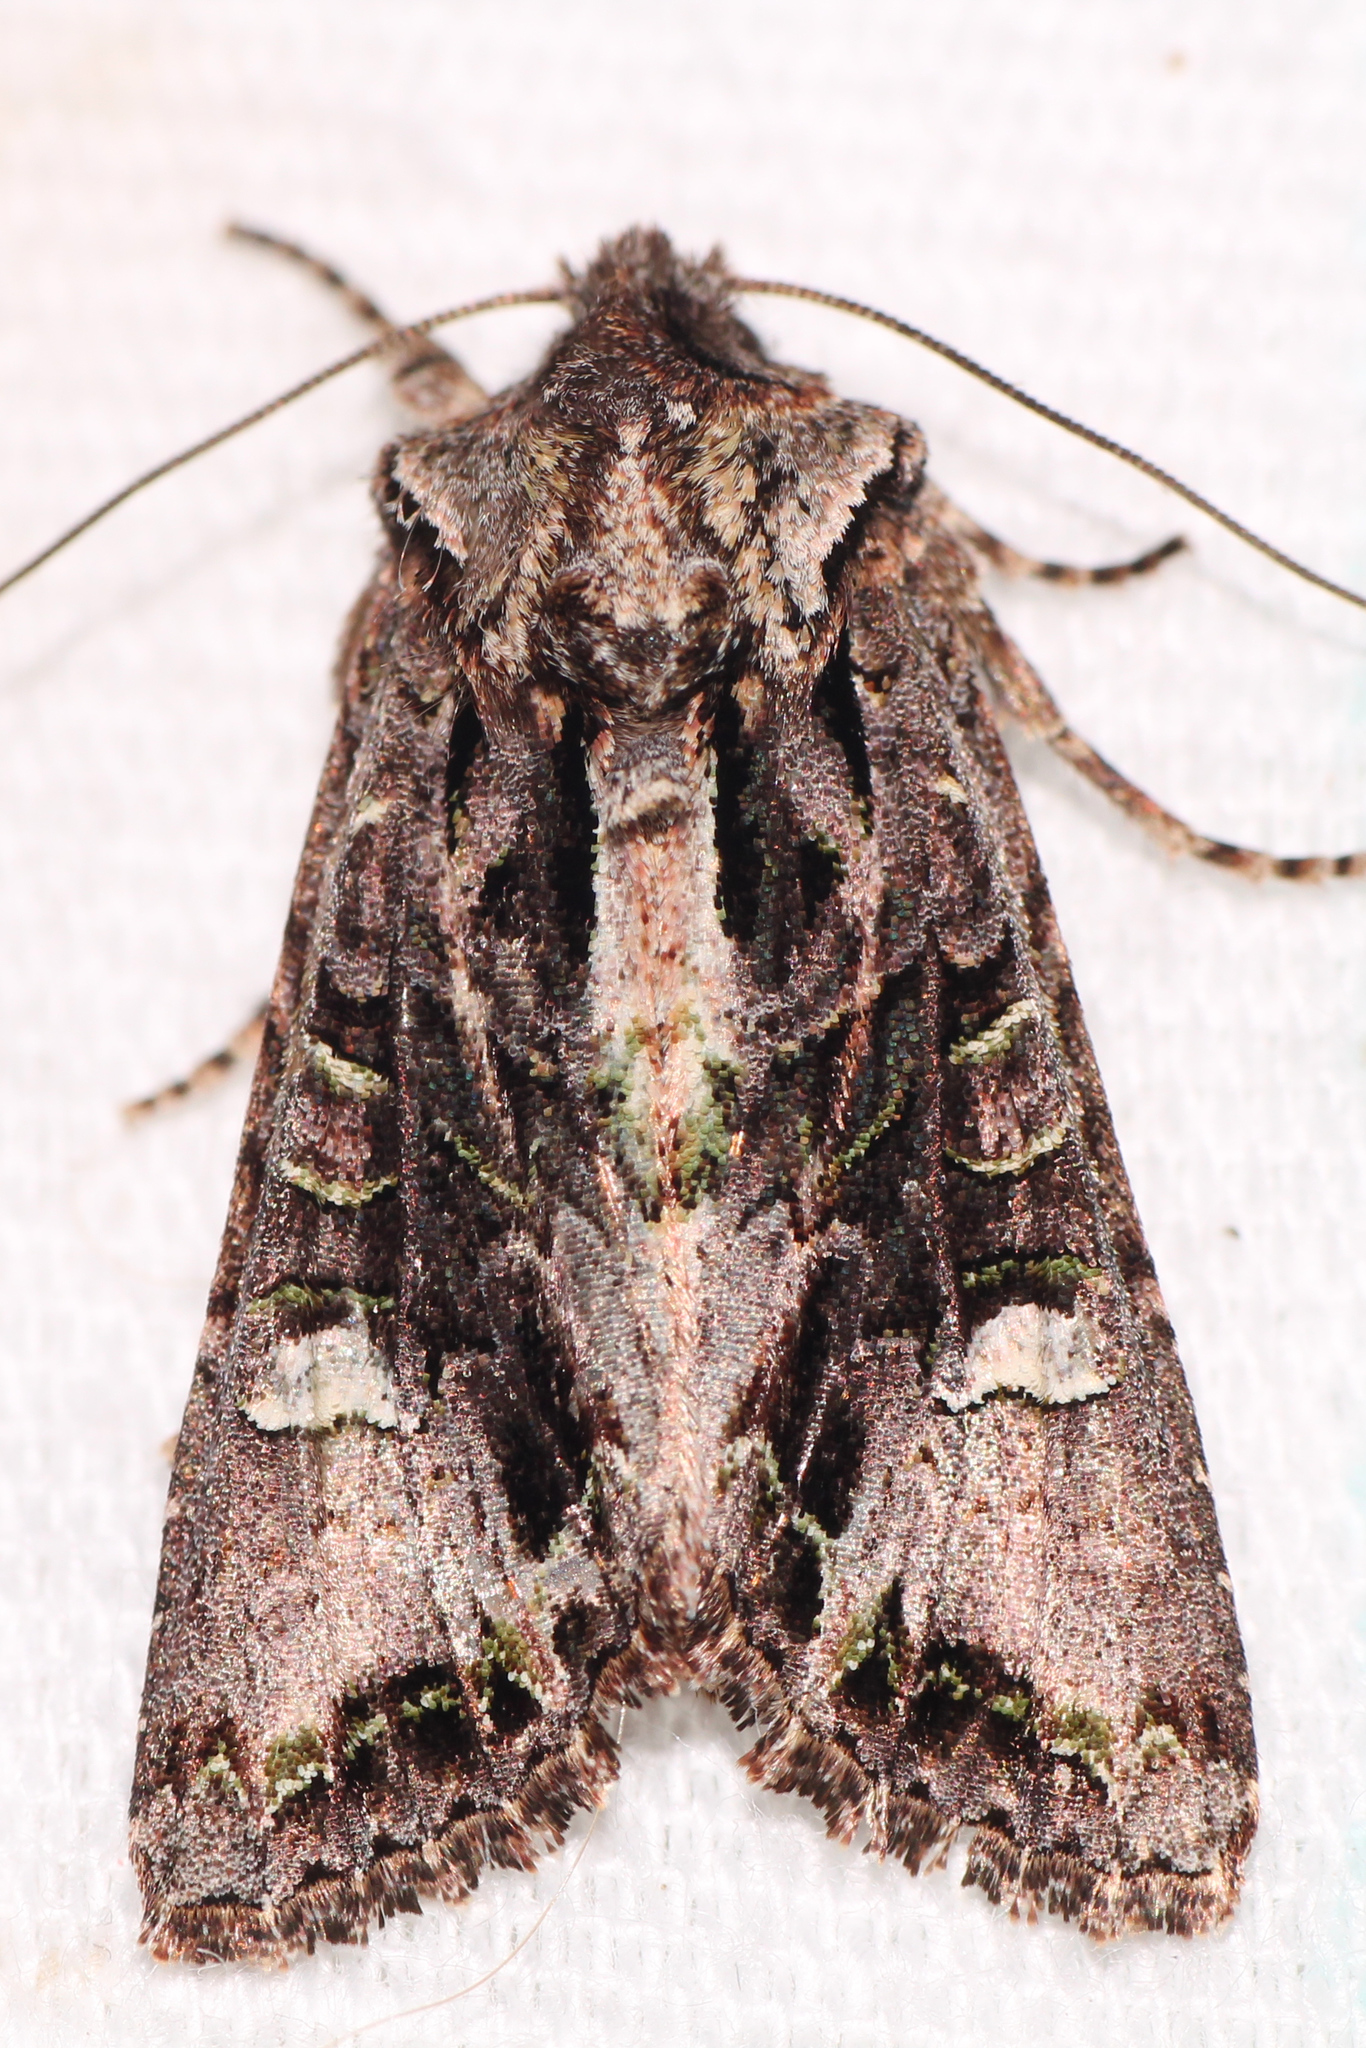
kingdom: Animalia
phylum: Arthropoda
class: Insecta
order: Lepidoptera
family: Noctuidae
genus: Ichneutica
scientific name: Ichneutica insignis
